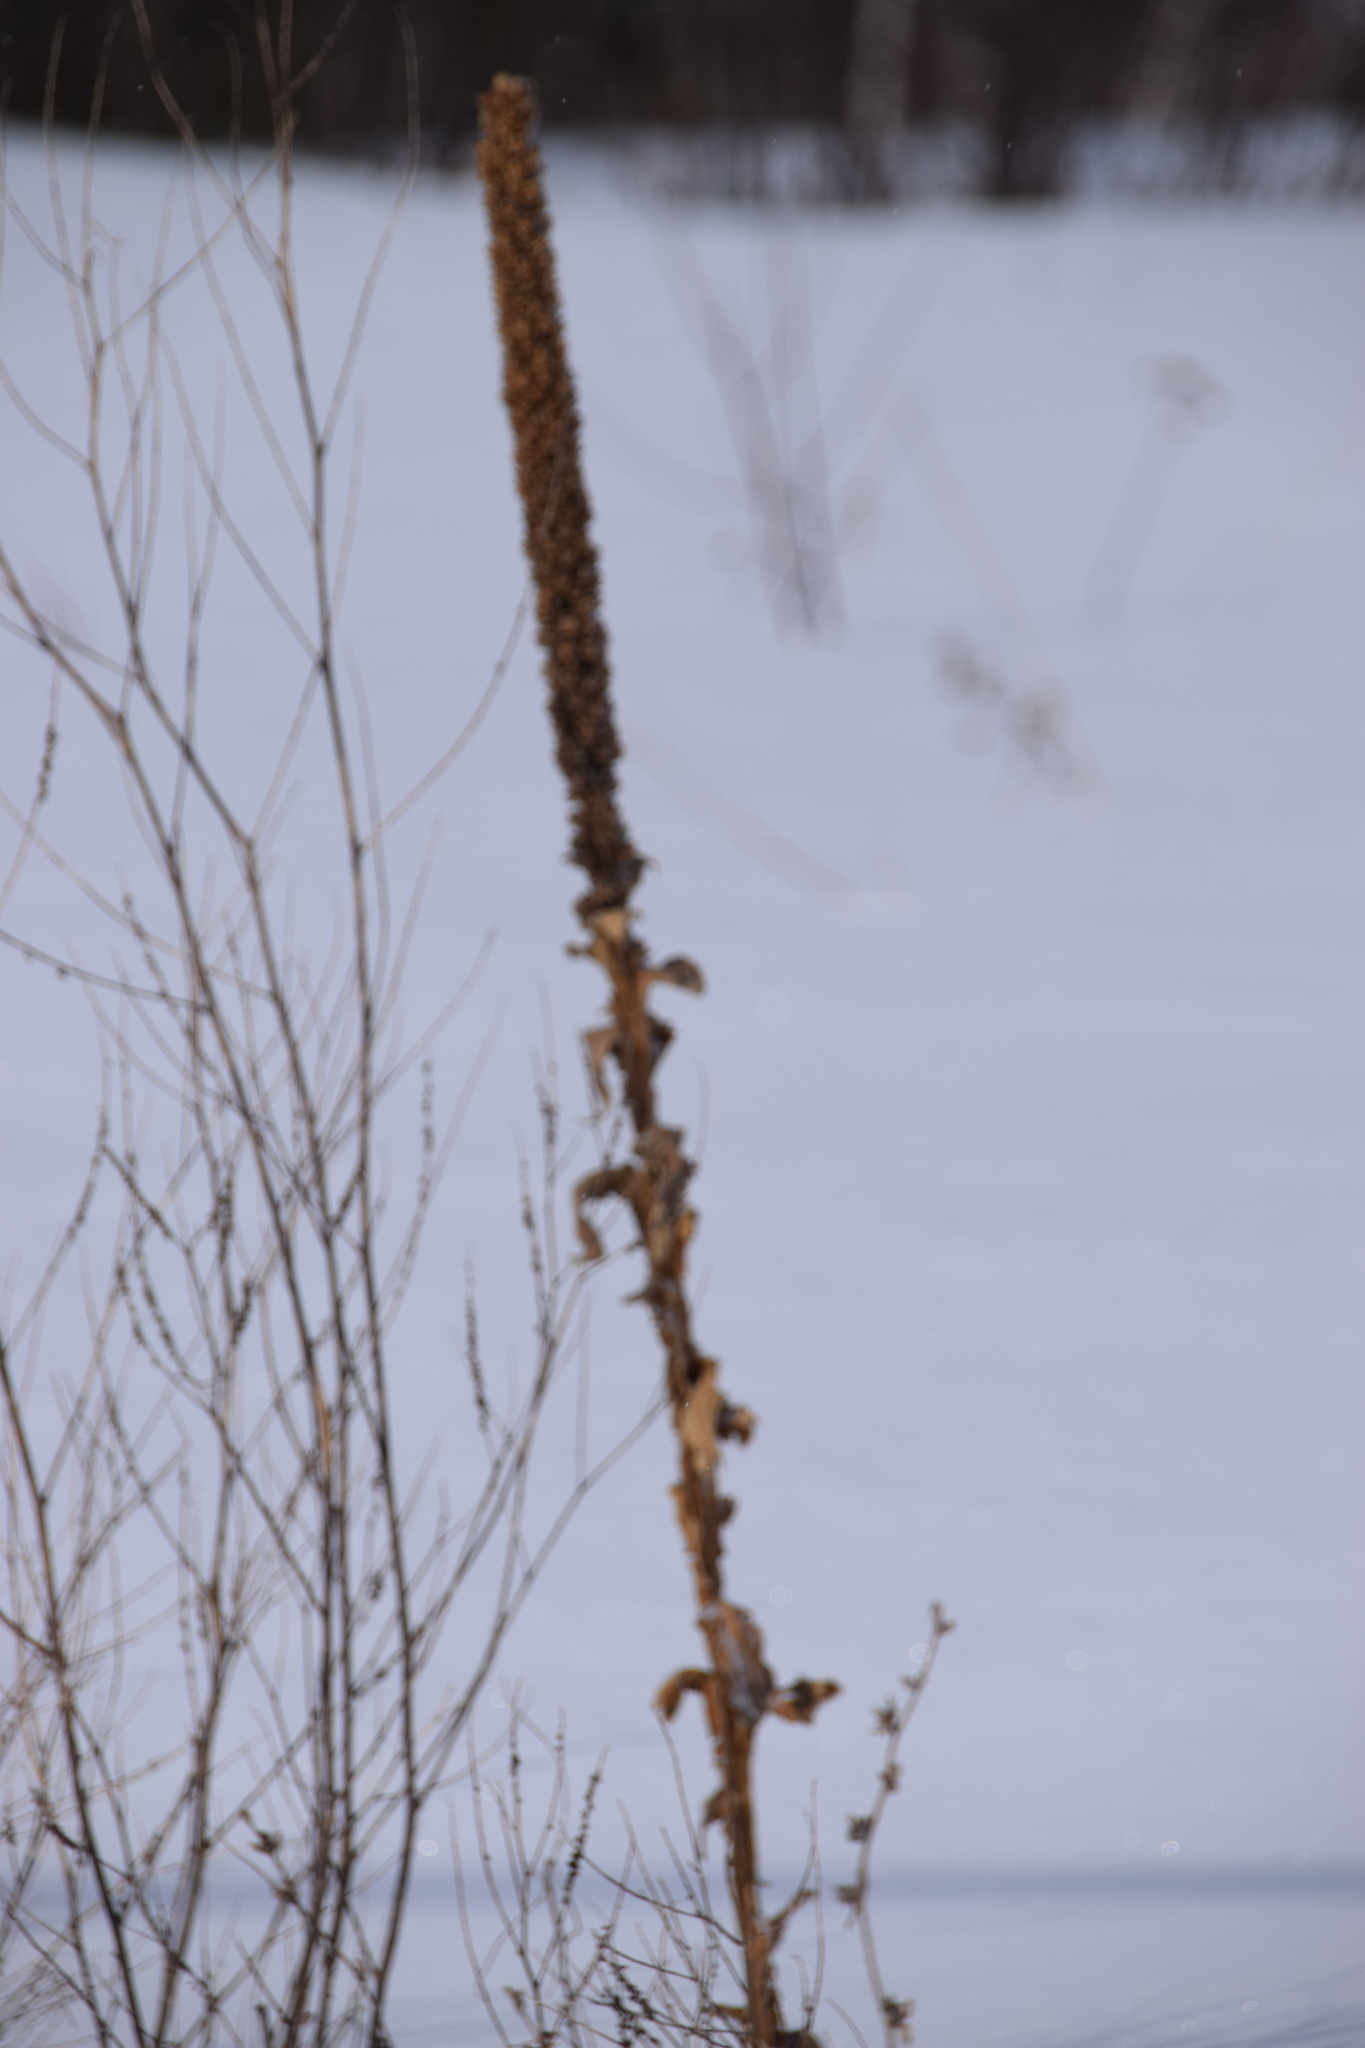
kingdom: Plantae
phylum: Tracheophyta
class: Magnoliopsida
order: Lamiales
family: Scrophulariaceae
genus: Verbascum
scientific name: Verbascum thapsus
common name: Common mullein
